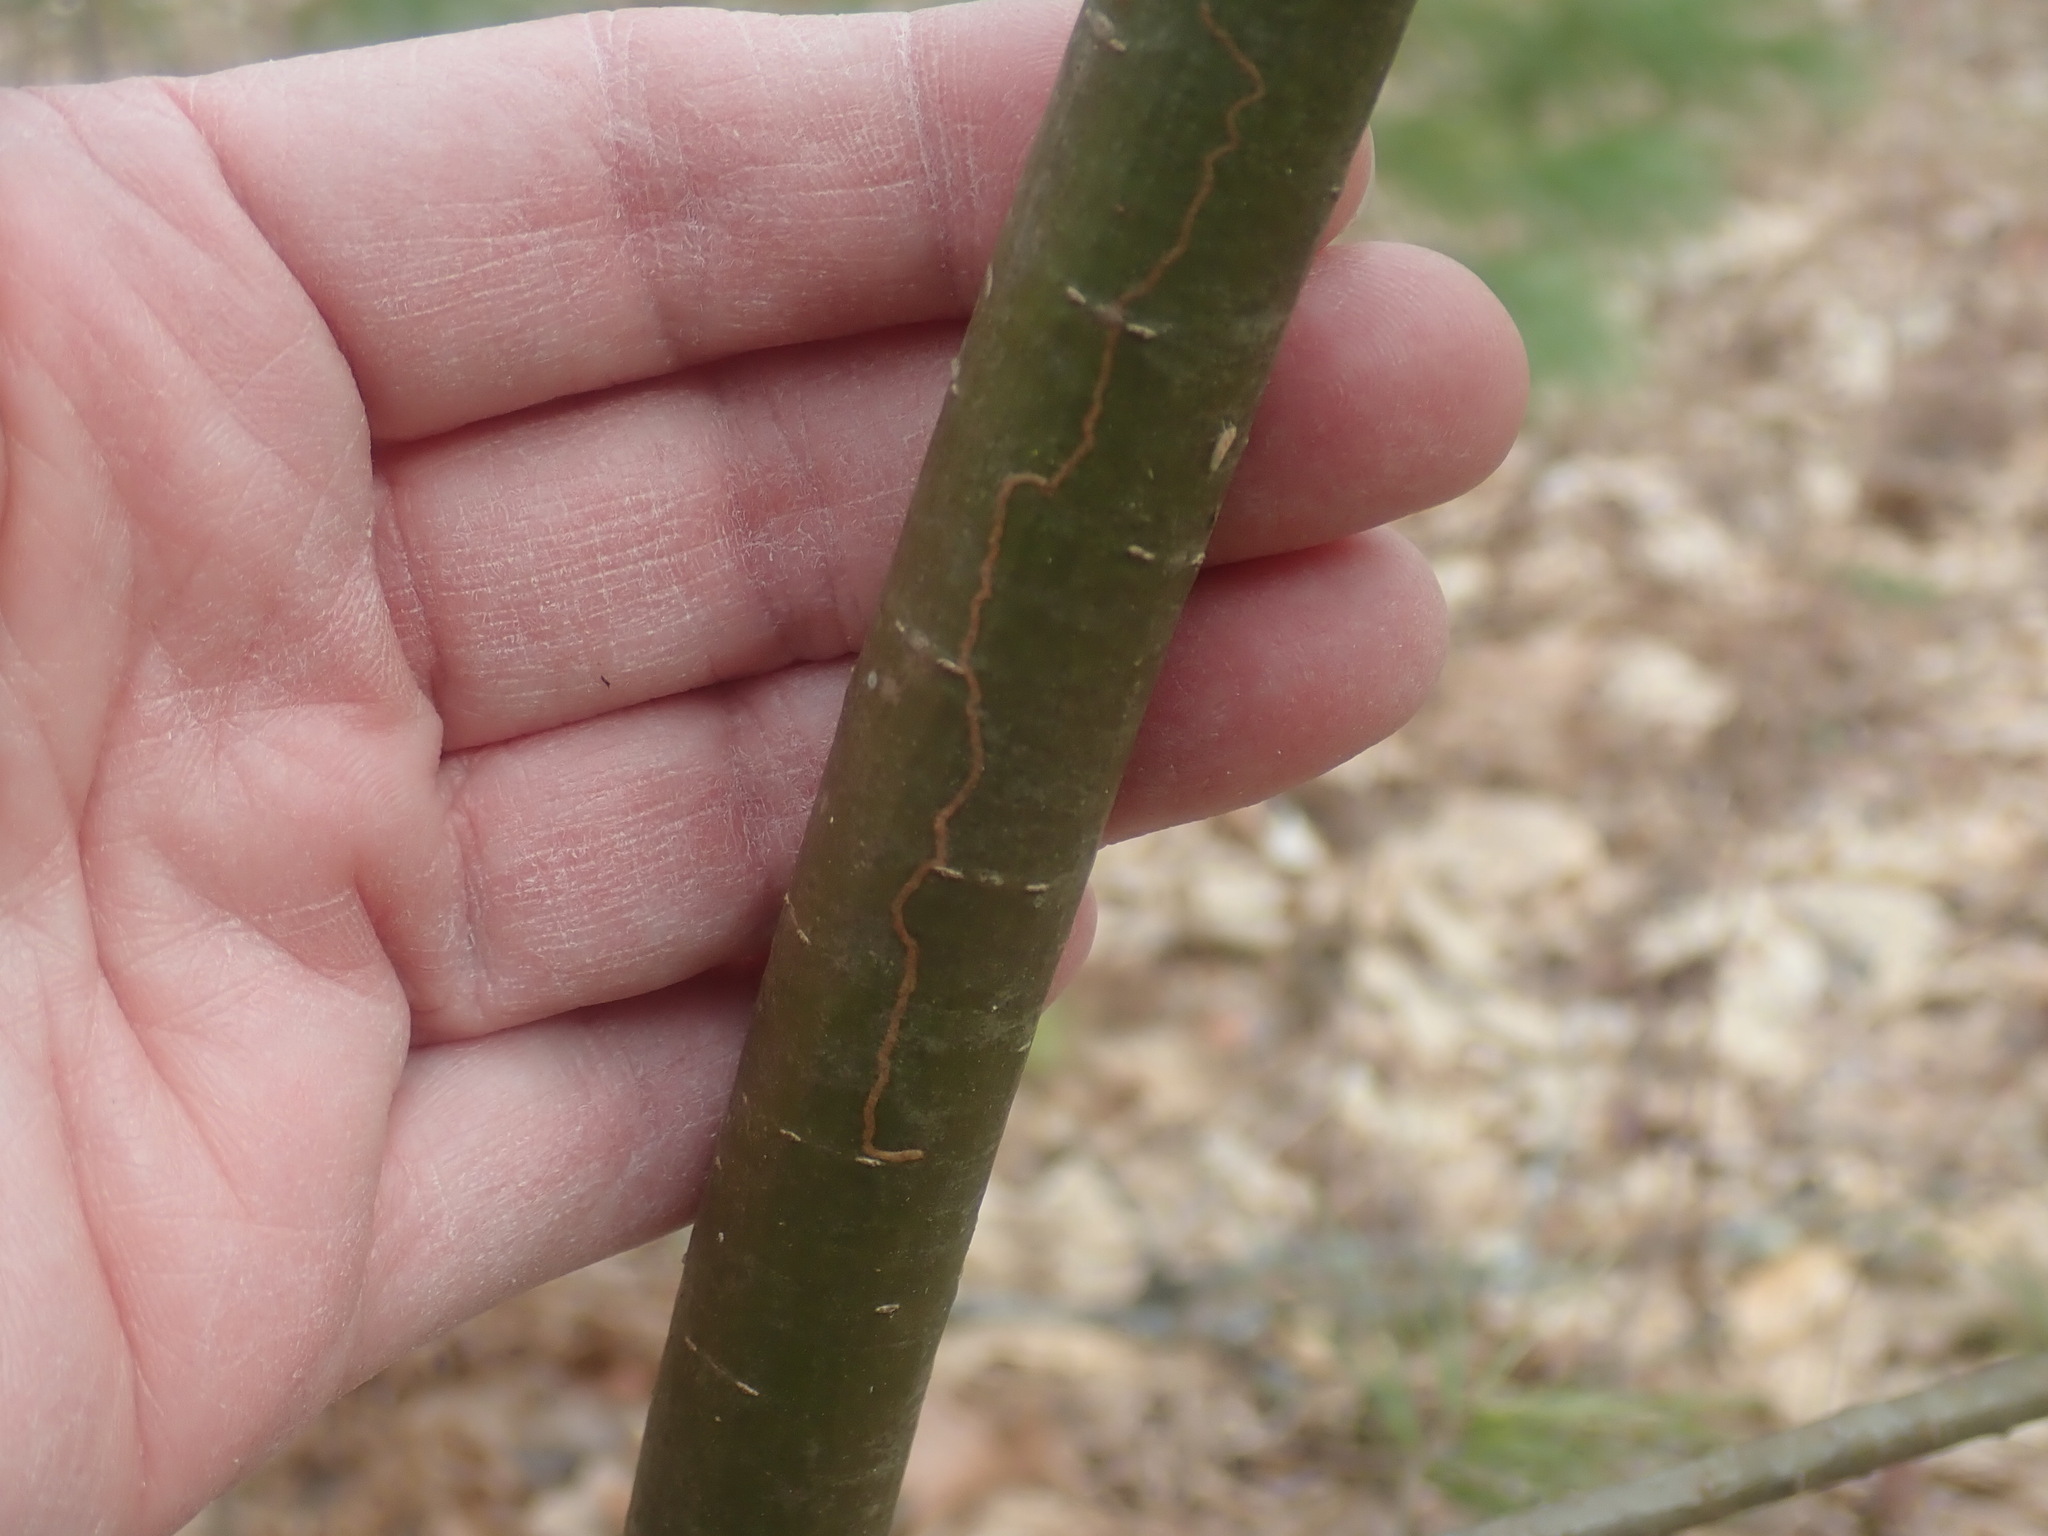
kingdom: Animalia
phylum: Arthropoda
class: Insecta
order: Lepidoptera
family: Gracillariidae
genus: Marmara
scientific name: Marmara fasciella
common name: White pine barkminer moth
